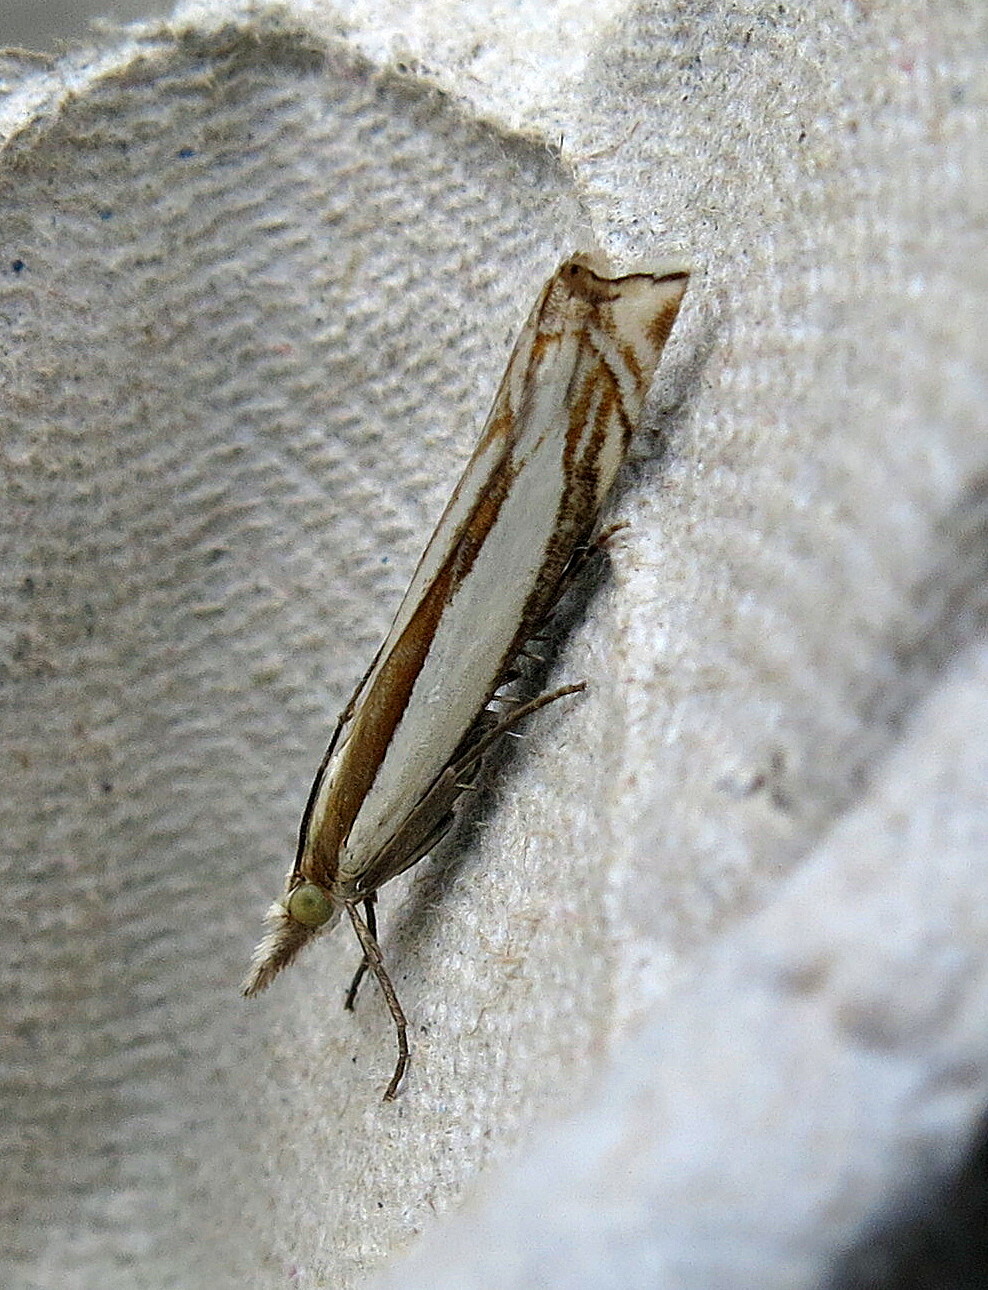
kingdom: Animalia
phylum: Arthropoda
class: Insecta
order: Lepidoptera
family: Crambidae
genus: Crambus
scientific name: Crambus pascuella
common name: Inlaid grass-veneer
